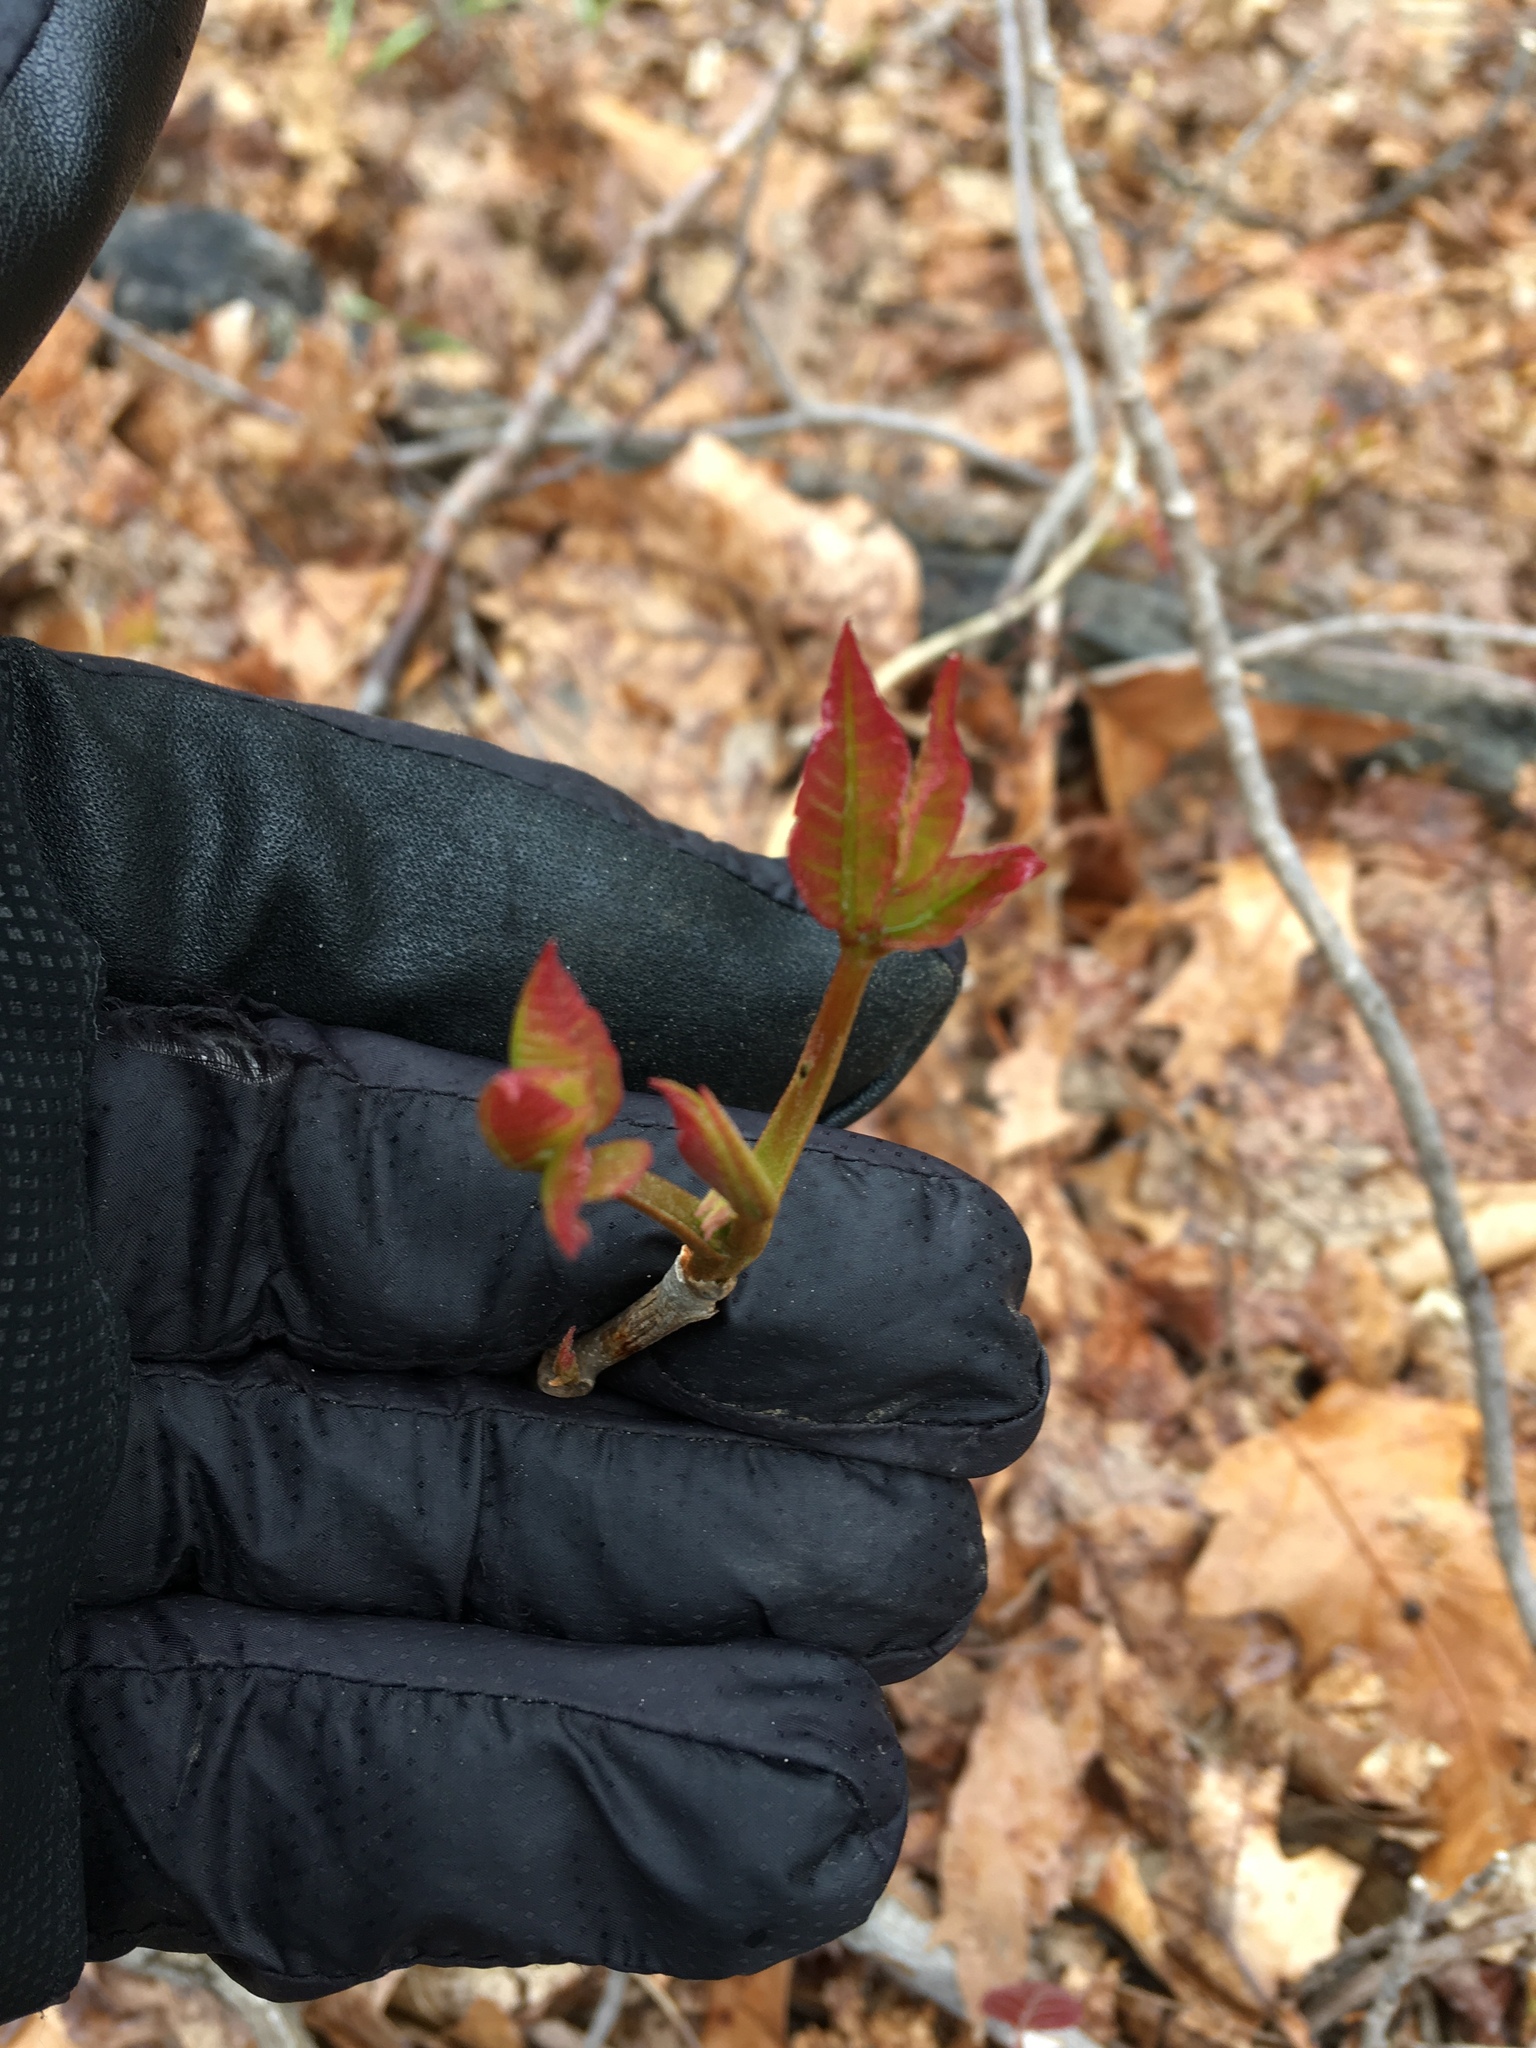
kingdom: Plantae
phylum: Tracheophyta
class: Magnoliopsida
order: Sapindales
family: Anacardiaceae
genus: Toxicodendron
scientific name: Toxicodendron radicans
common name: Poison ivy
